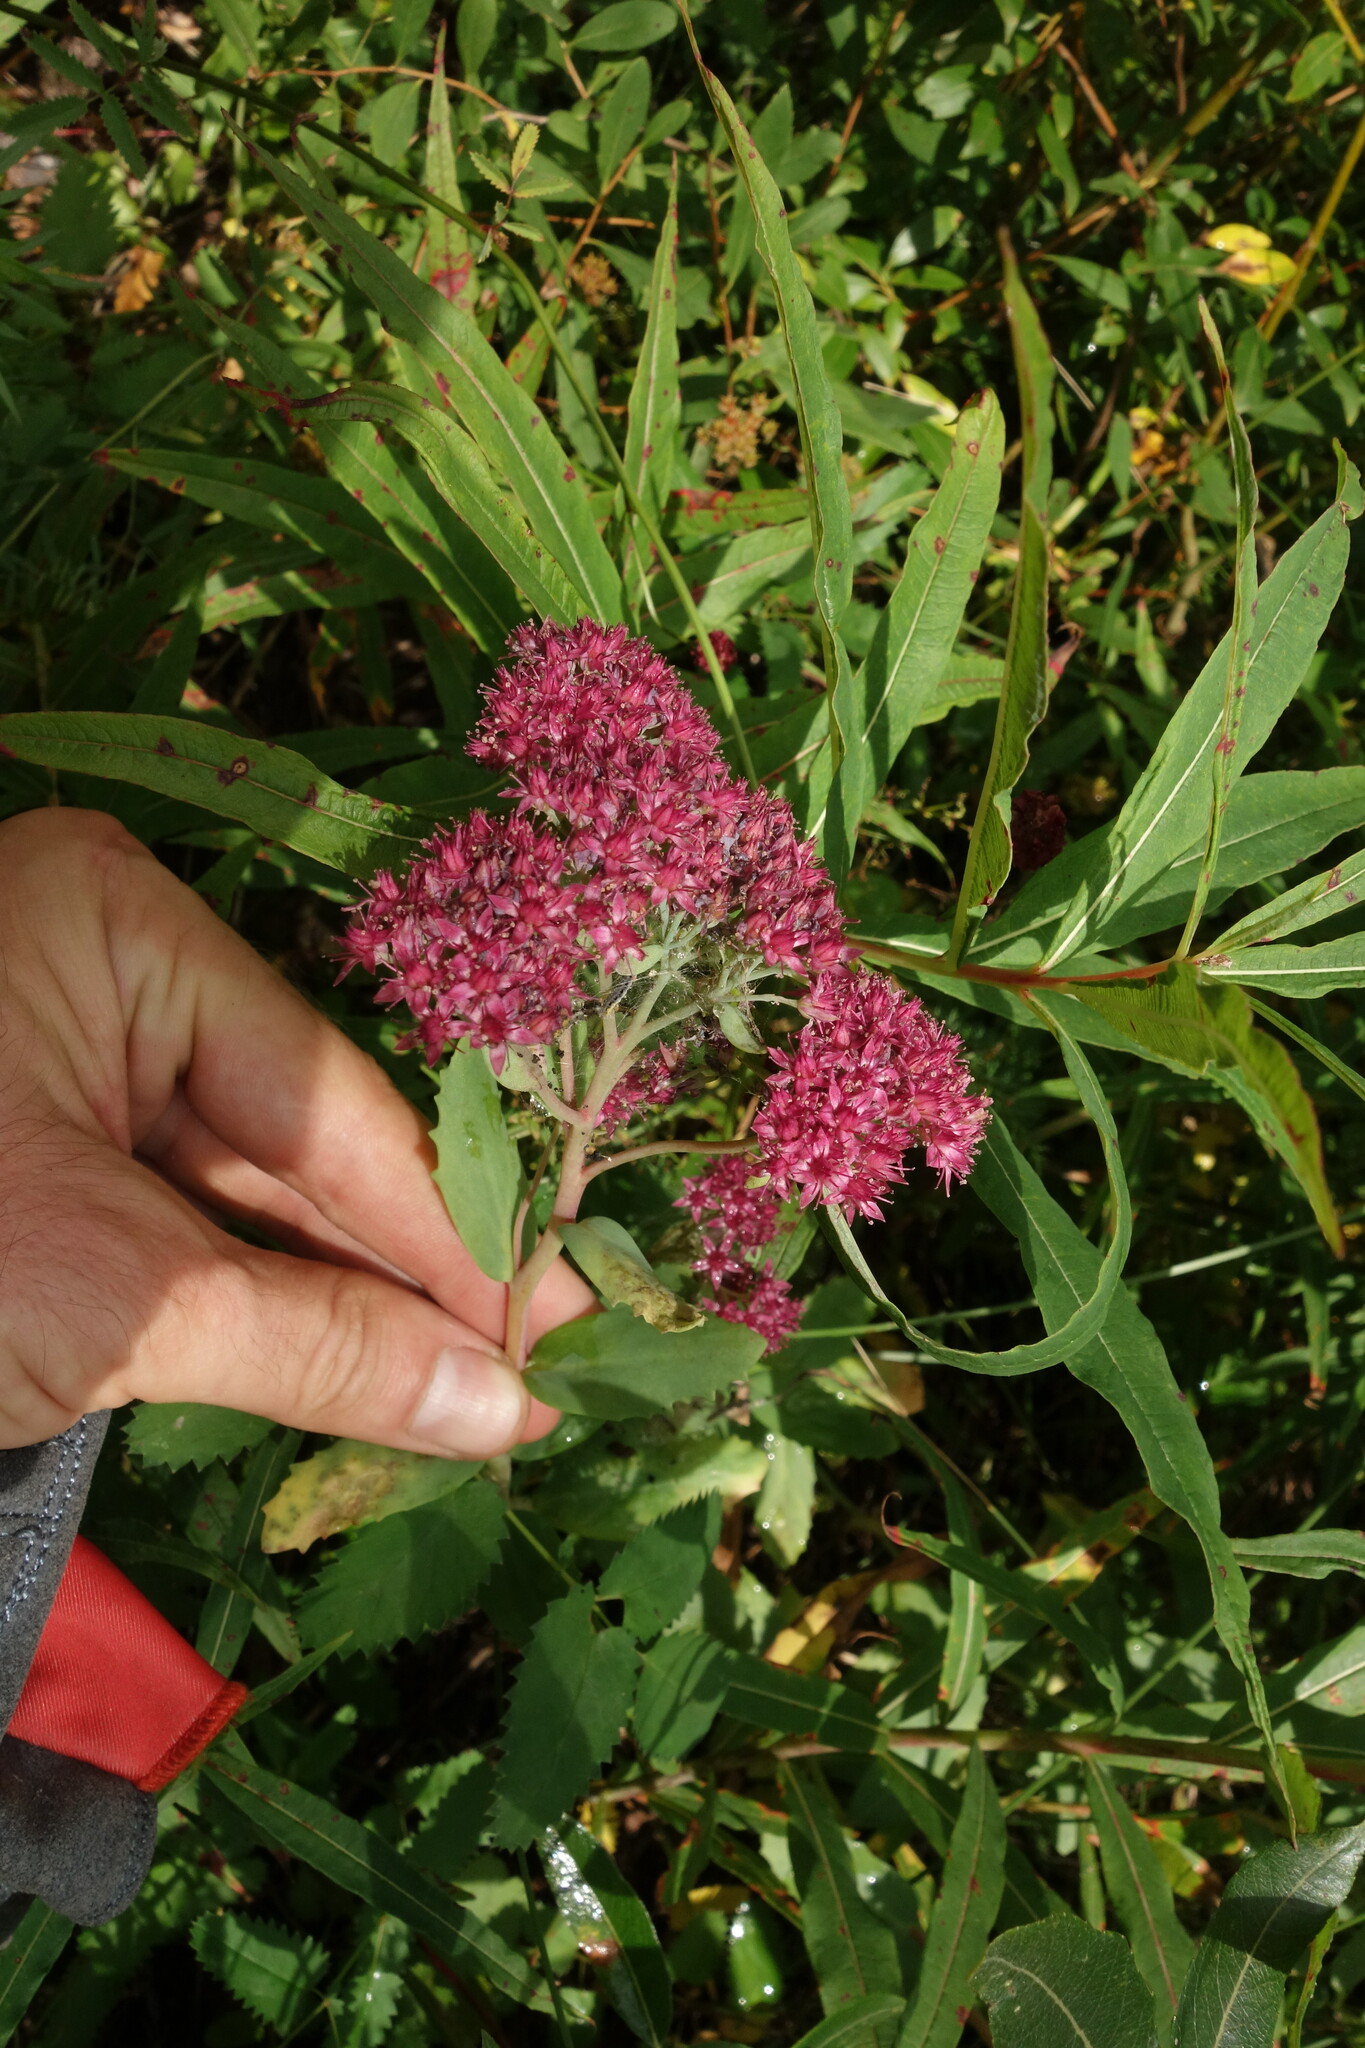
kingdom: Plantae
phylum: Tracheophyta
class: Magnoliopsida
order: Saxifragales
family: Crassulaceae
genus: Hylotelephium
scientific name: Hylotelephium telephium
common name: Live-forever
